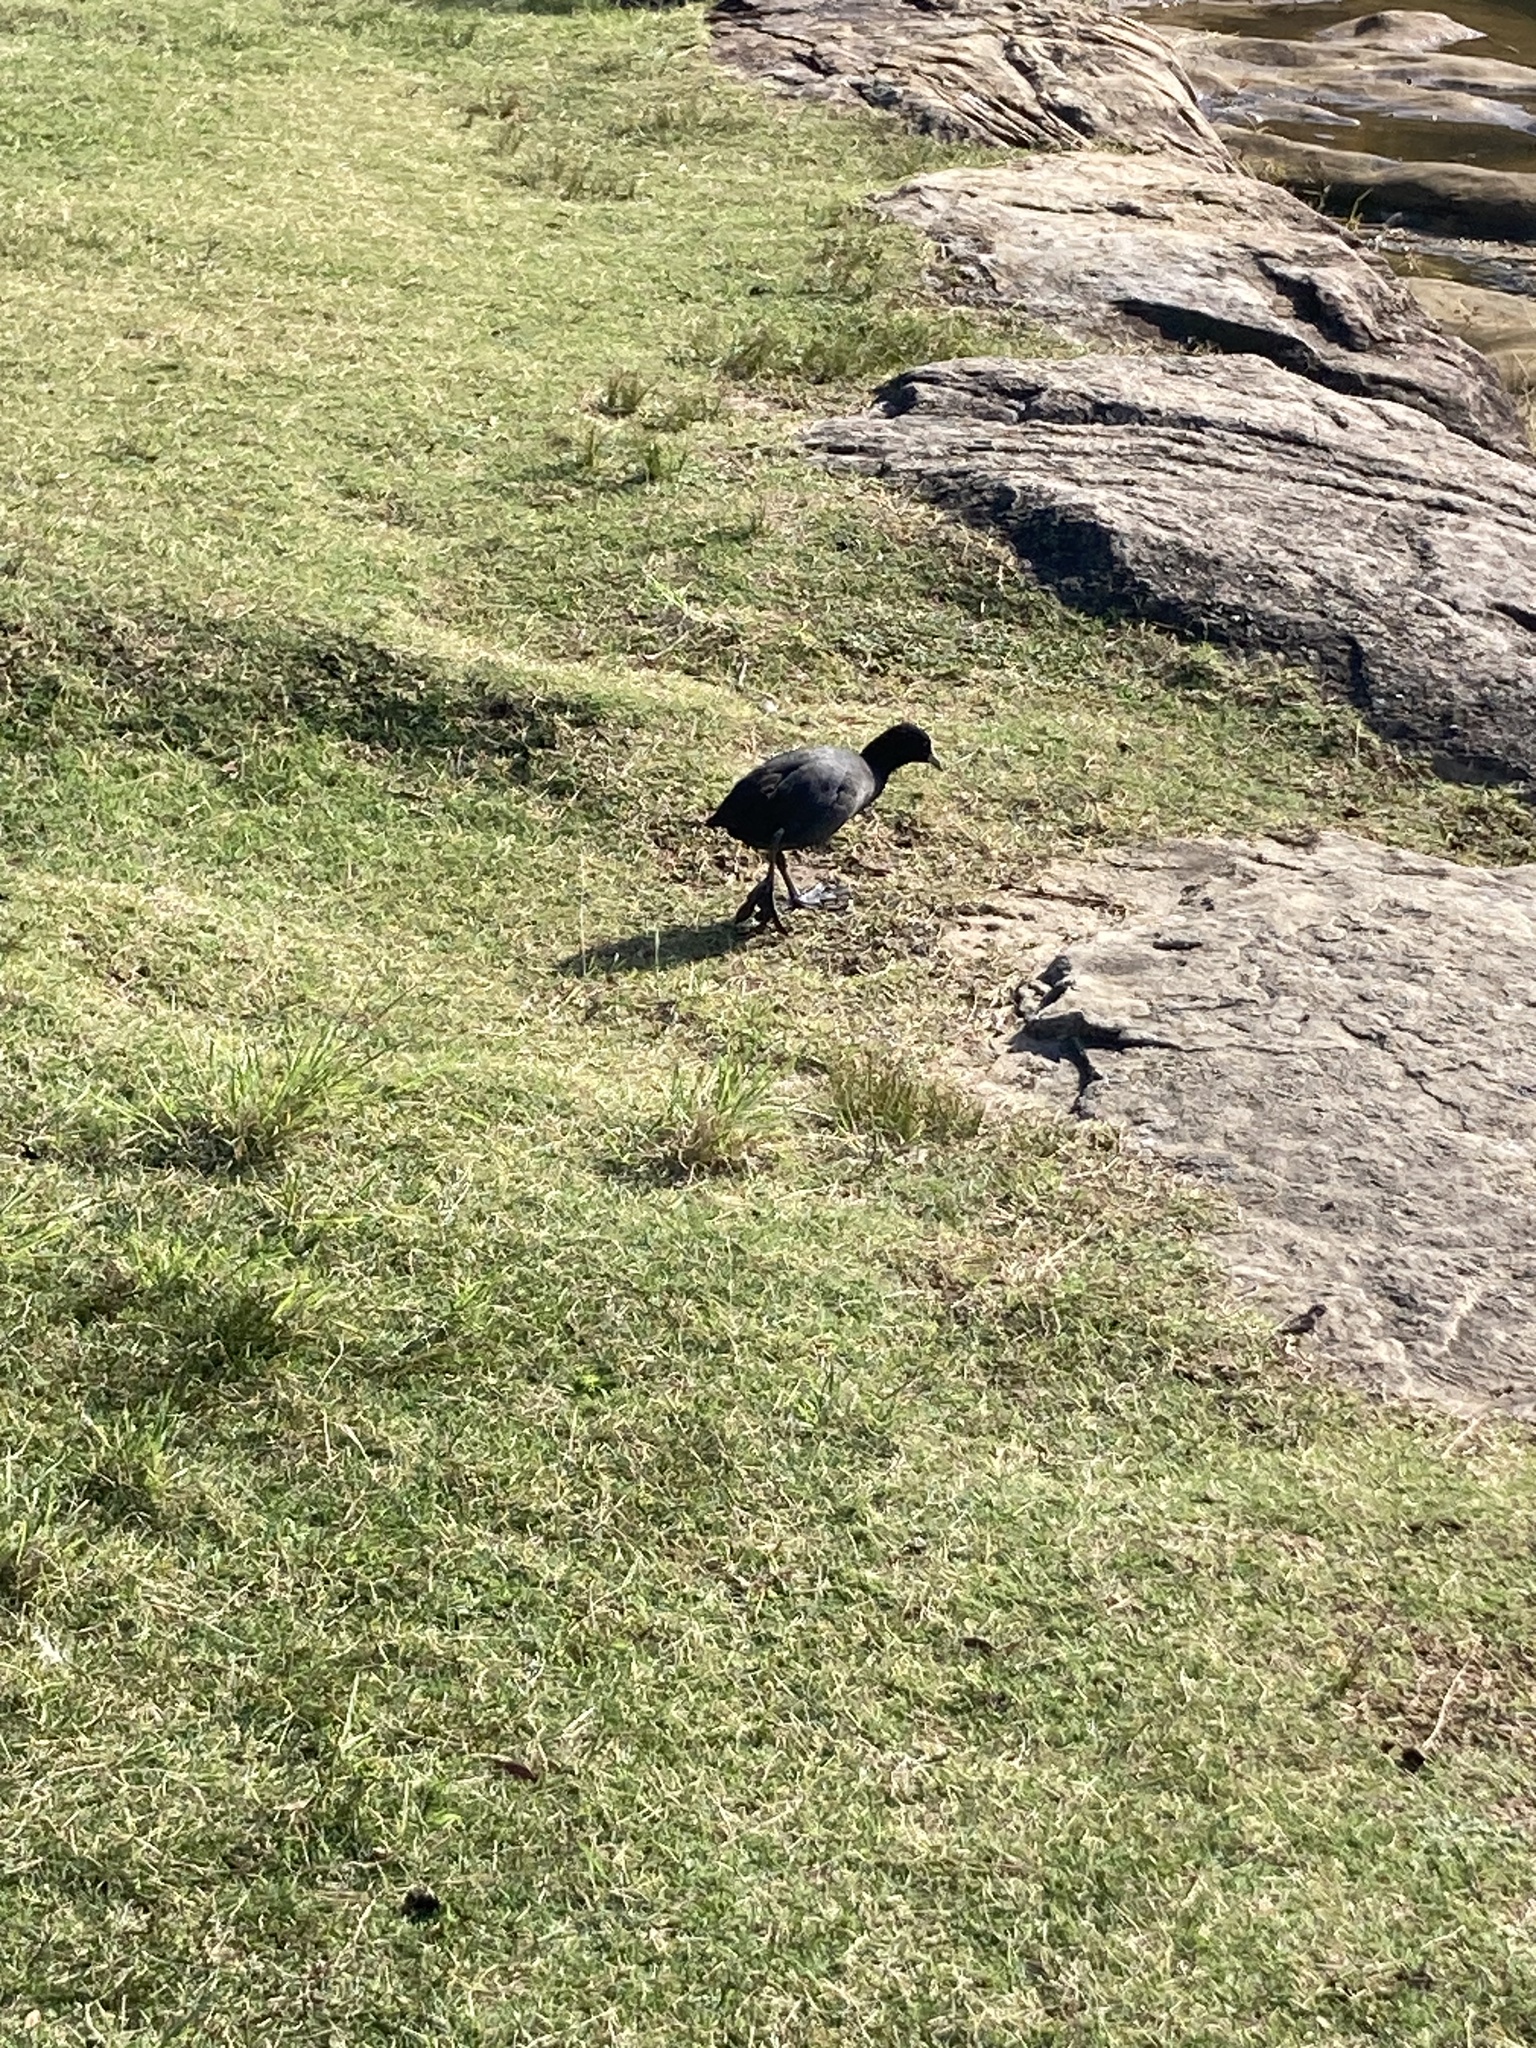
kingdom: Animalia
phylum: Chordata
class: Aves
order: Gruiformes
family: Rallidae
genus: Fulica
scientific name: Fulica atra
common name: Eurasian coot
